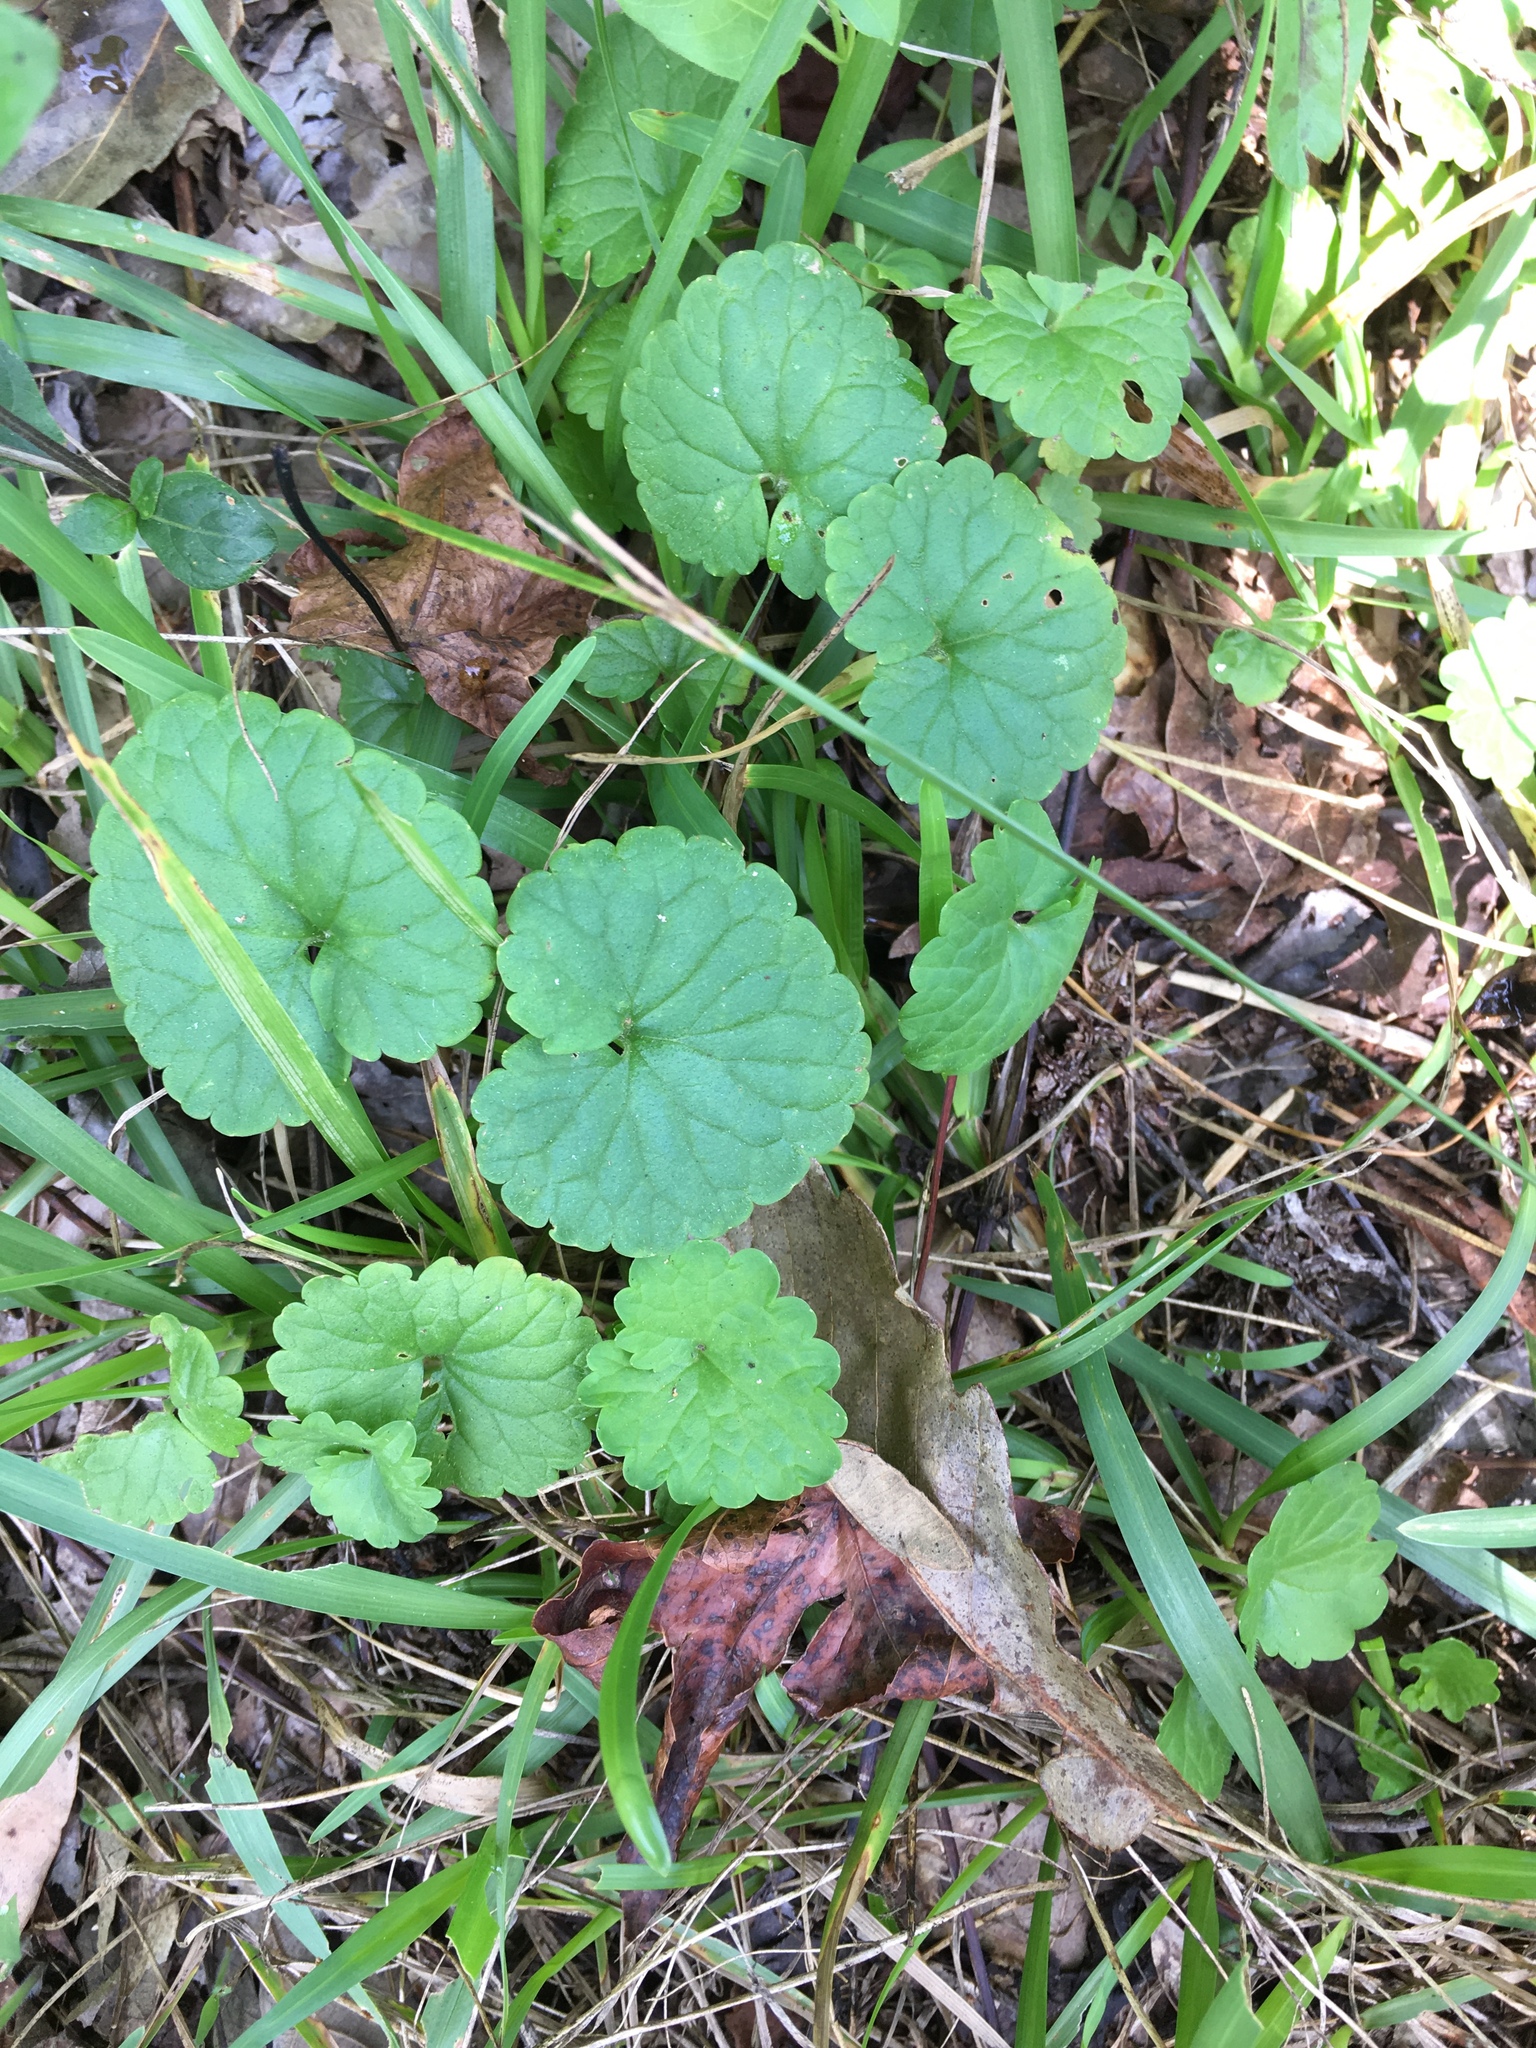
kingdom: Plantae
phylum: Tracheophyta
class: Magnoliopsida
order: Lamiales
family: Lamiaceae
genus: Glechoma
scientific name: Glechoma hederacea
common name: Ground ivy
